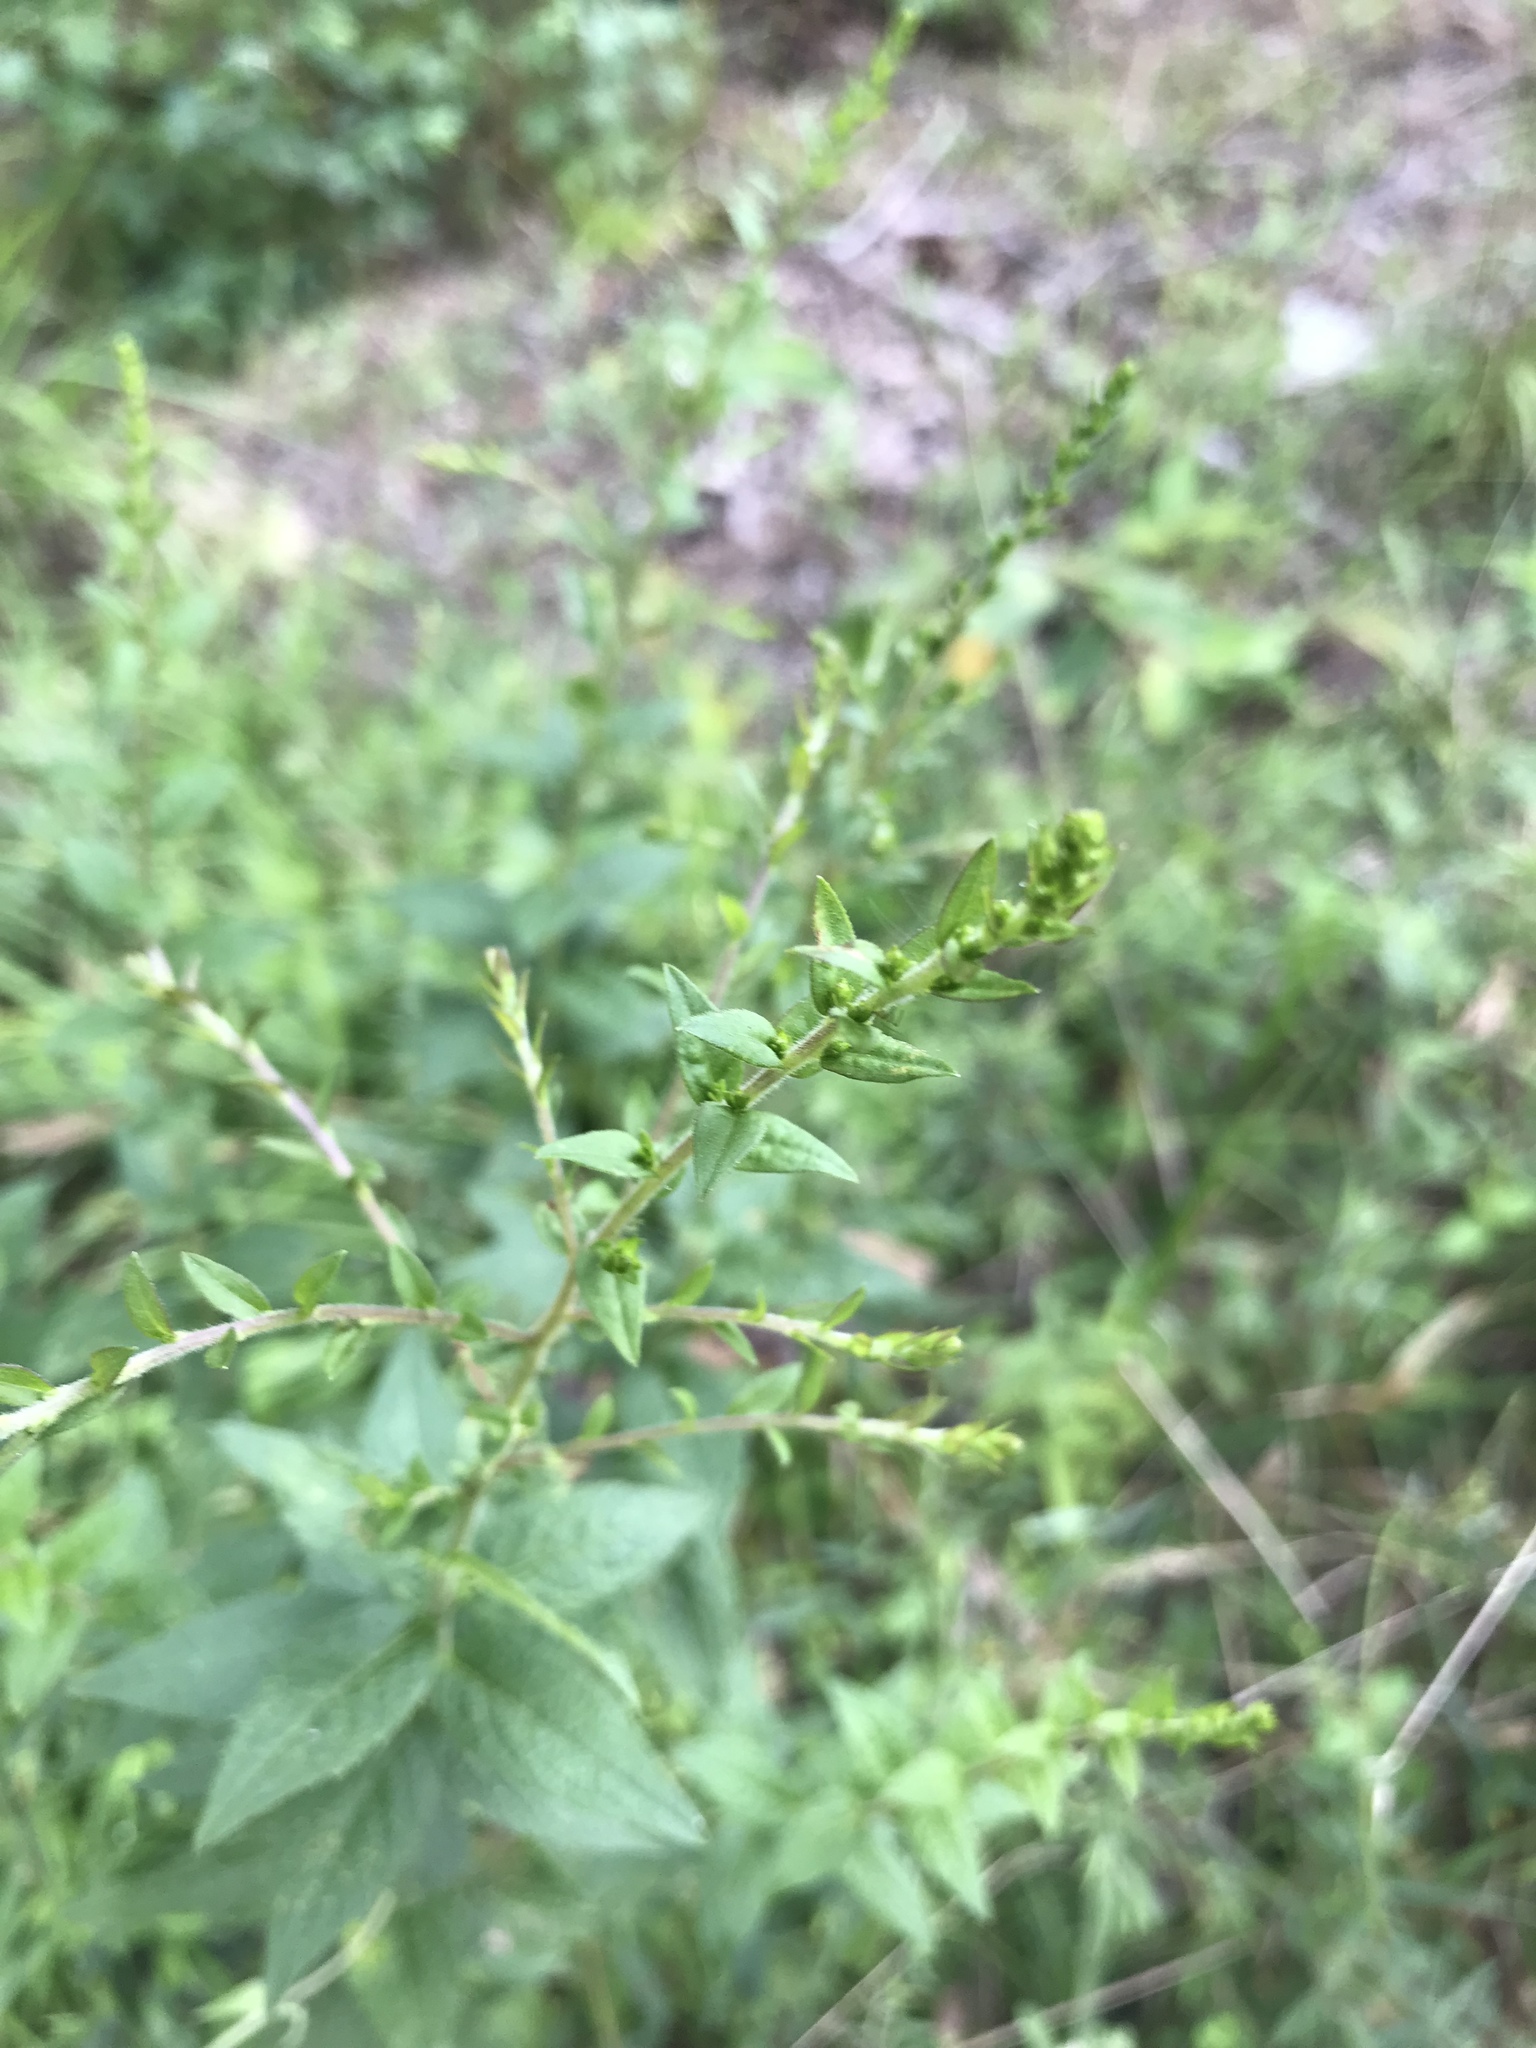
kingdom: Plantae
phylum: Tracheophyta
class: Magnoliopsida
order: Asterales
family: Asteraceae
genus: Solidago
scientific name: Solidago rugosa
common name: Rough-stemmed goldenrod
